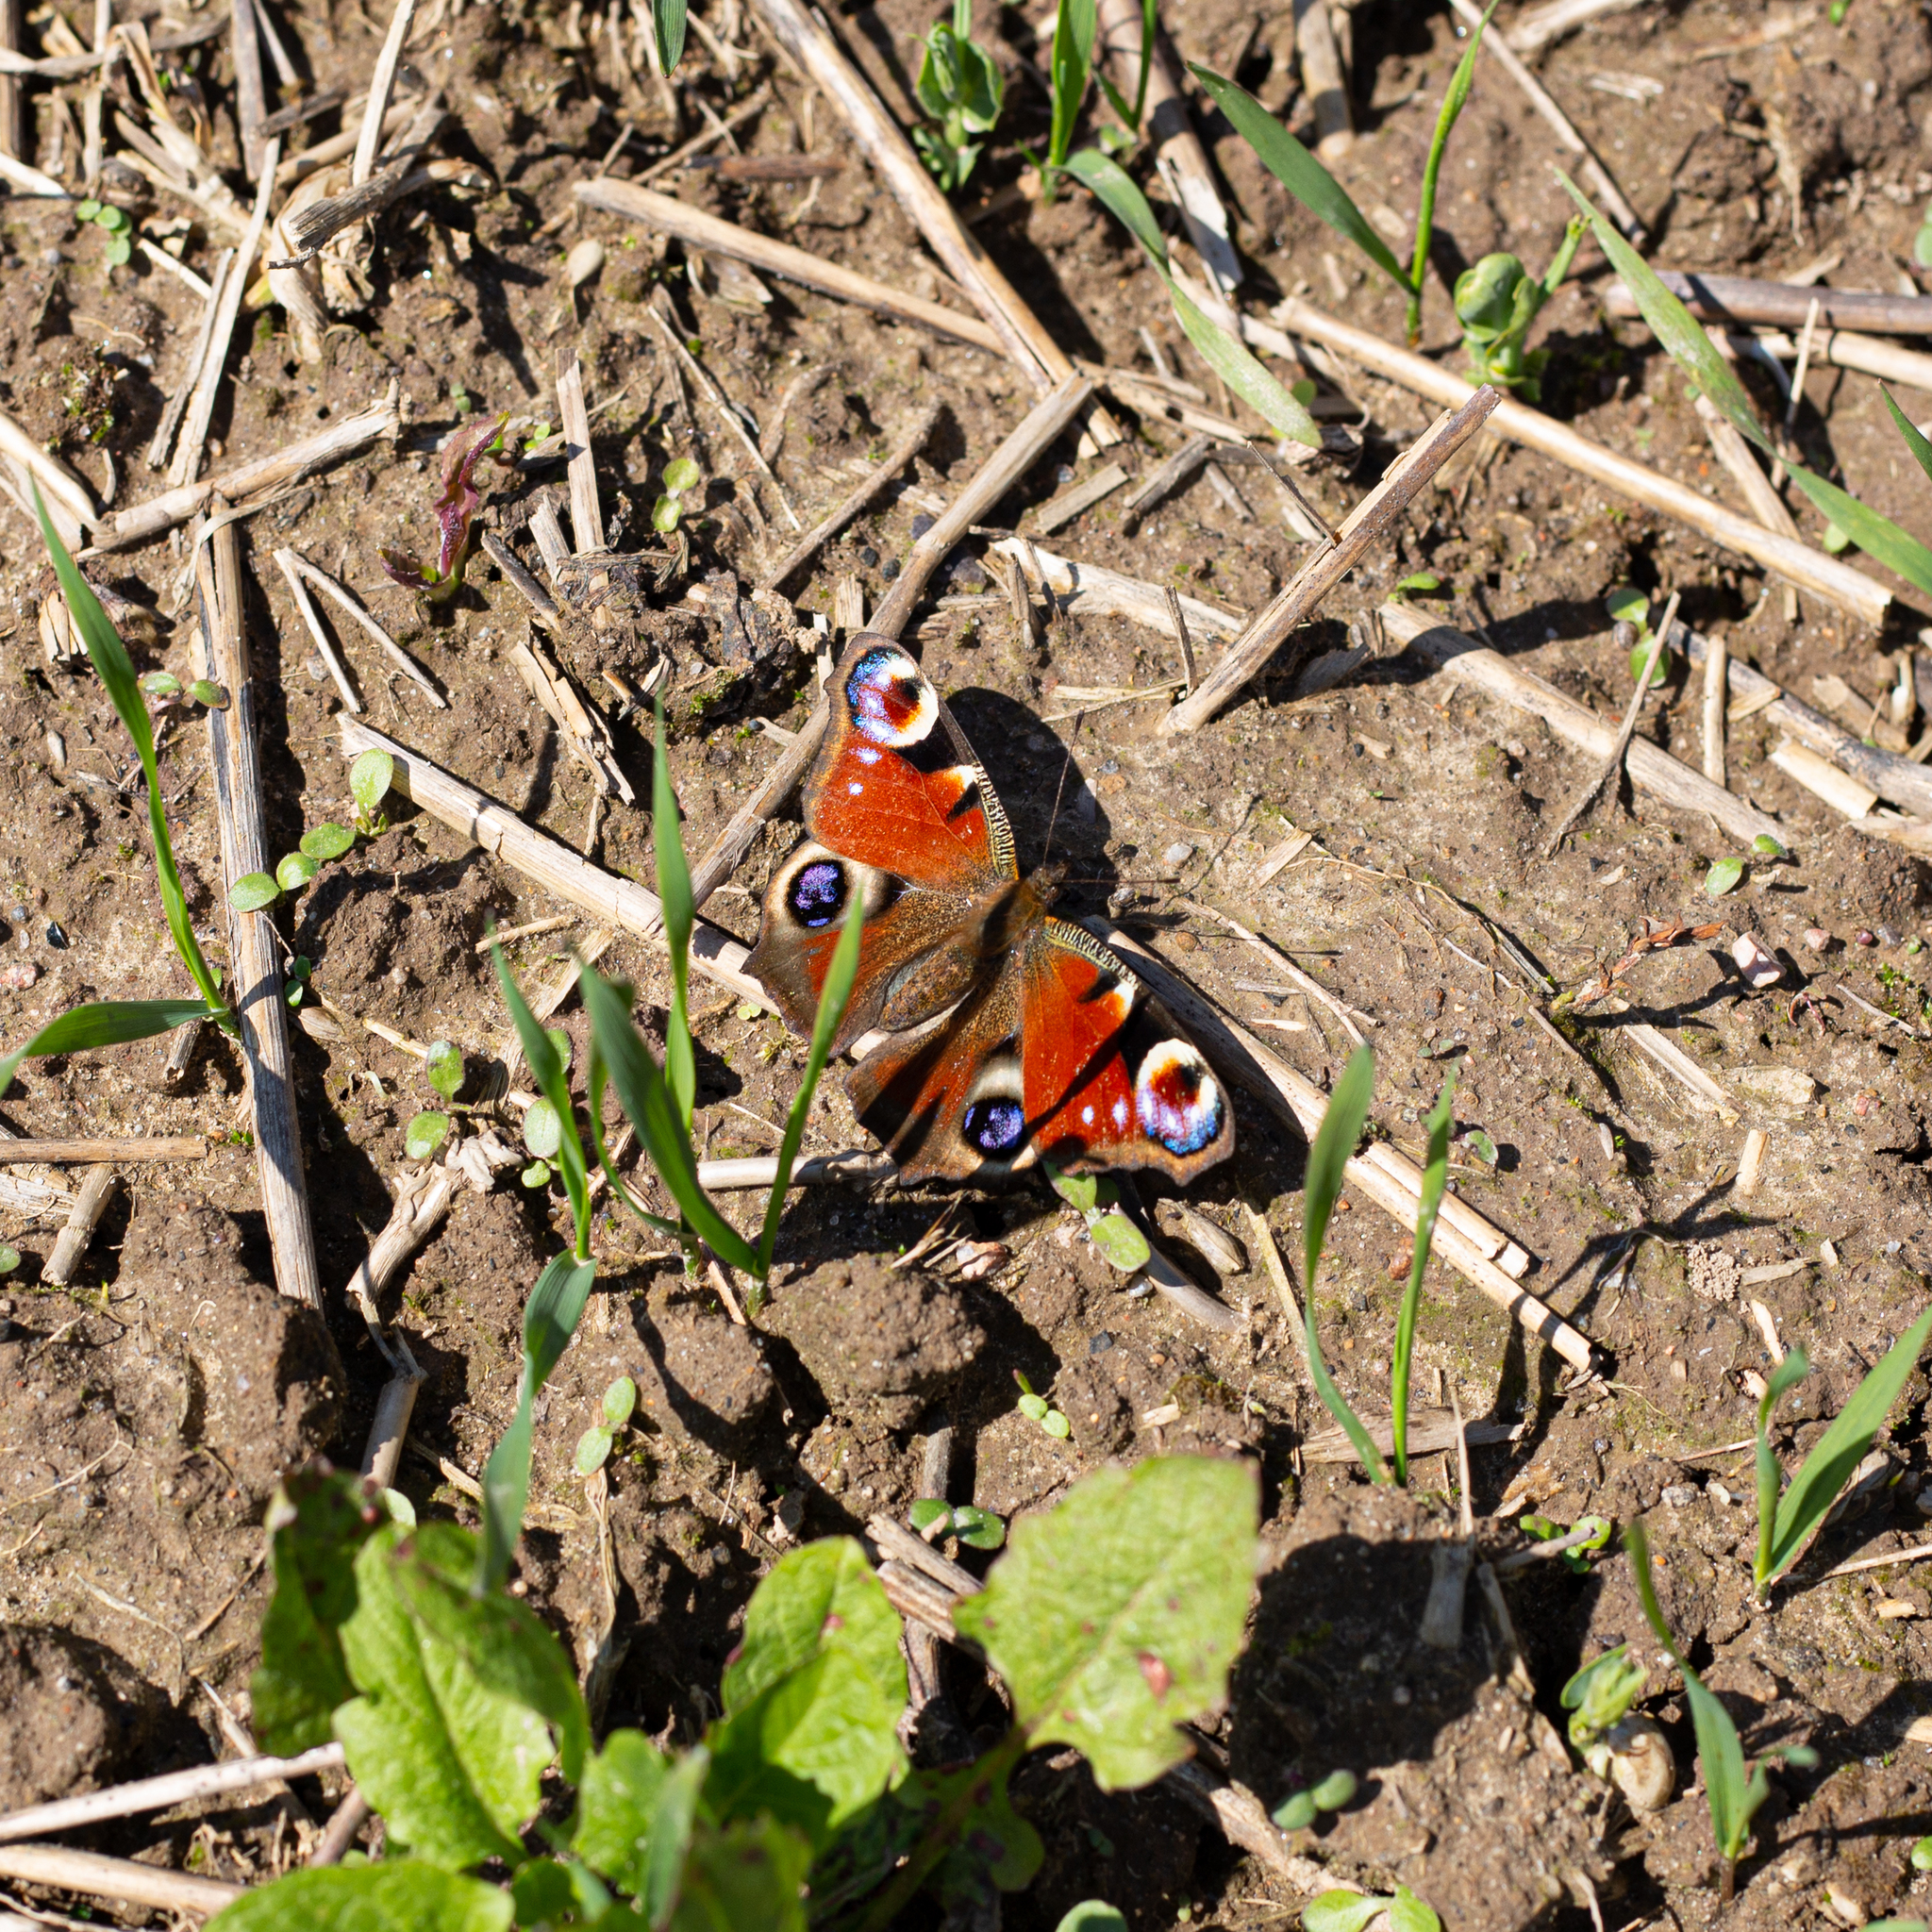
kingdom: Animalia
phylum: Arthropoda
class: Insecta
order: Lepidoptera
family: Nymphalidae
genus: Aglais
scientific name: Aglais io
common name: Peacock
